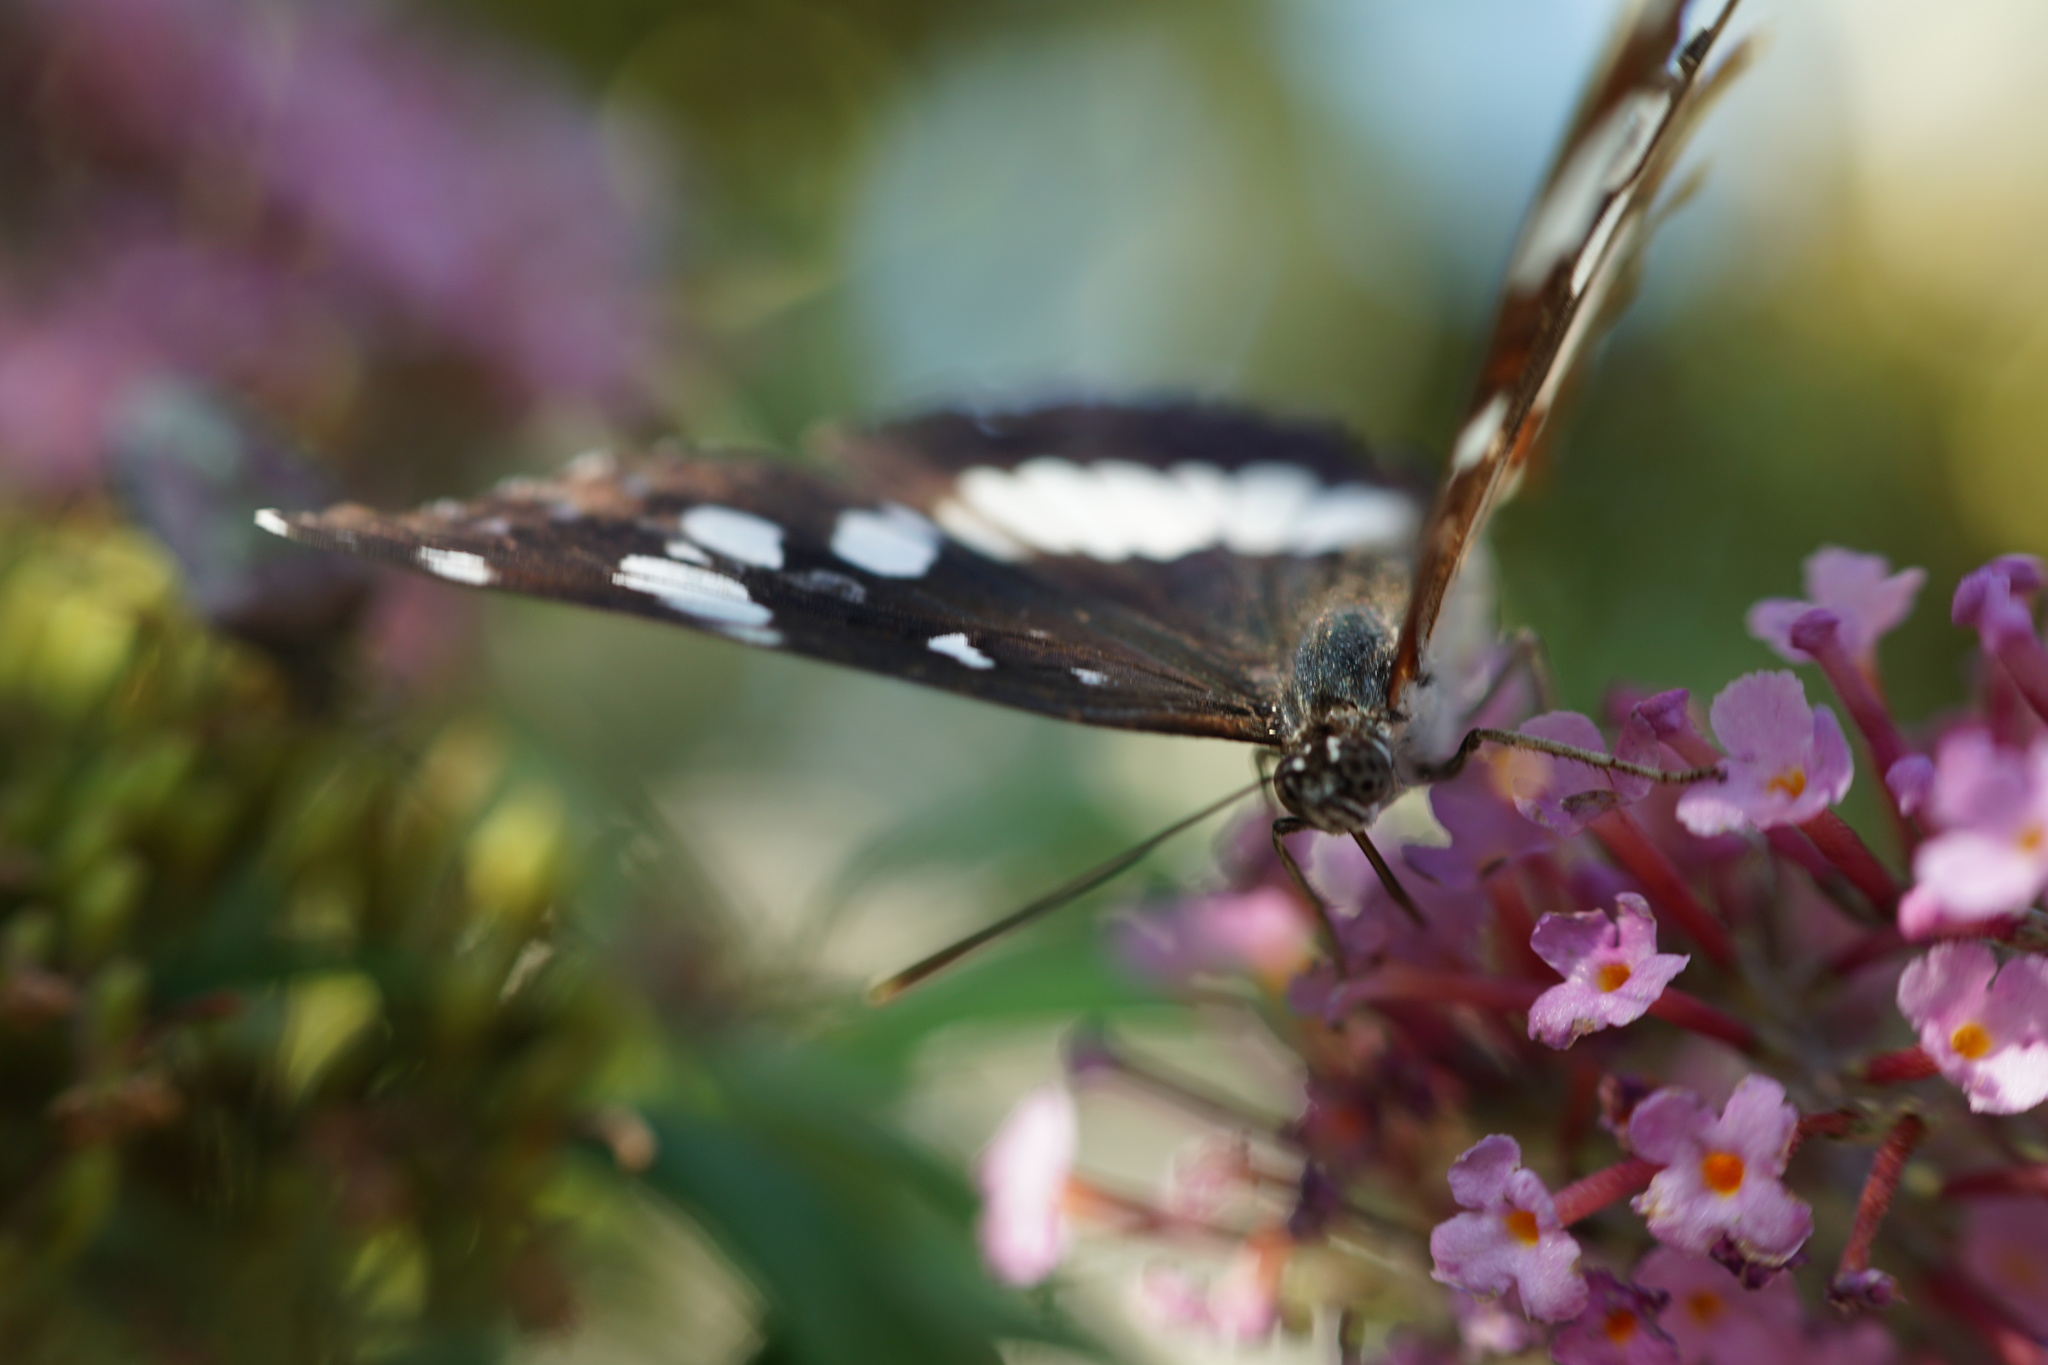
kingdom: Animalia
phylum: Arthropoda
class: Insecta
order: Lepidoptera
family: Nymphalidae
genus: Limenitis
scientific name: Limenitis reducta
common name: Southern white admiral
